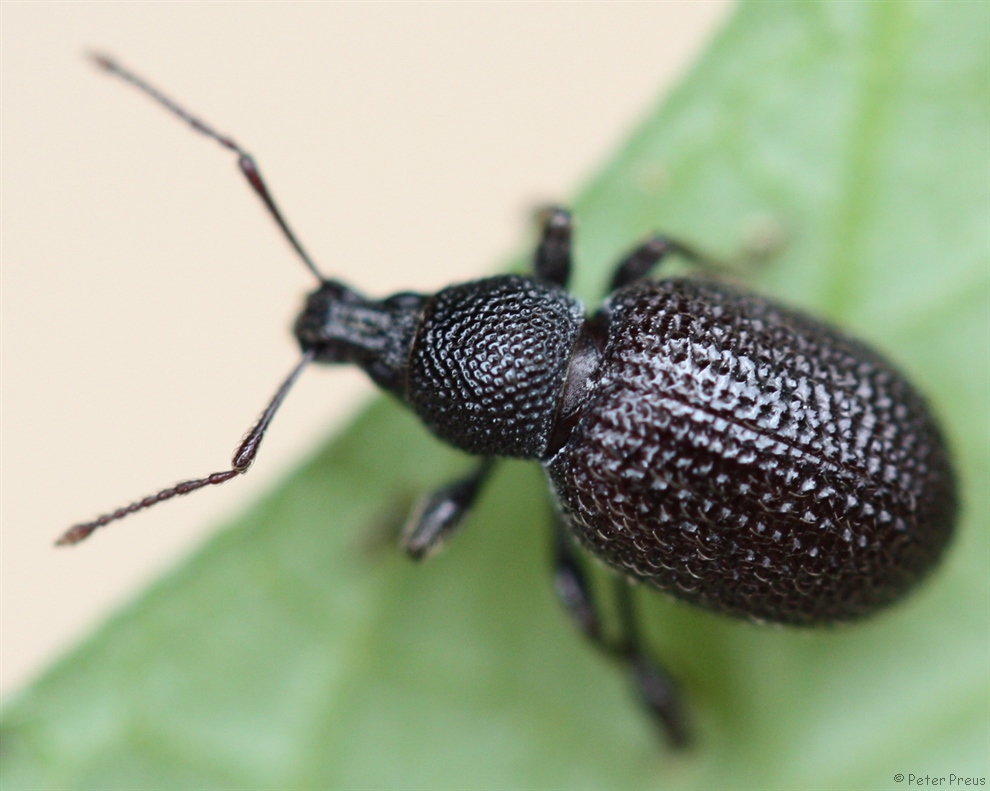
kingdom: Animalia
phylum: Arthropoda
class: Insecta
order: Coleoptera
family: Curculionidae
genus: Otiorhynchus
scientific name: Otiorhynchus rugosostriatus
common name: Weevil
